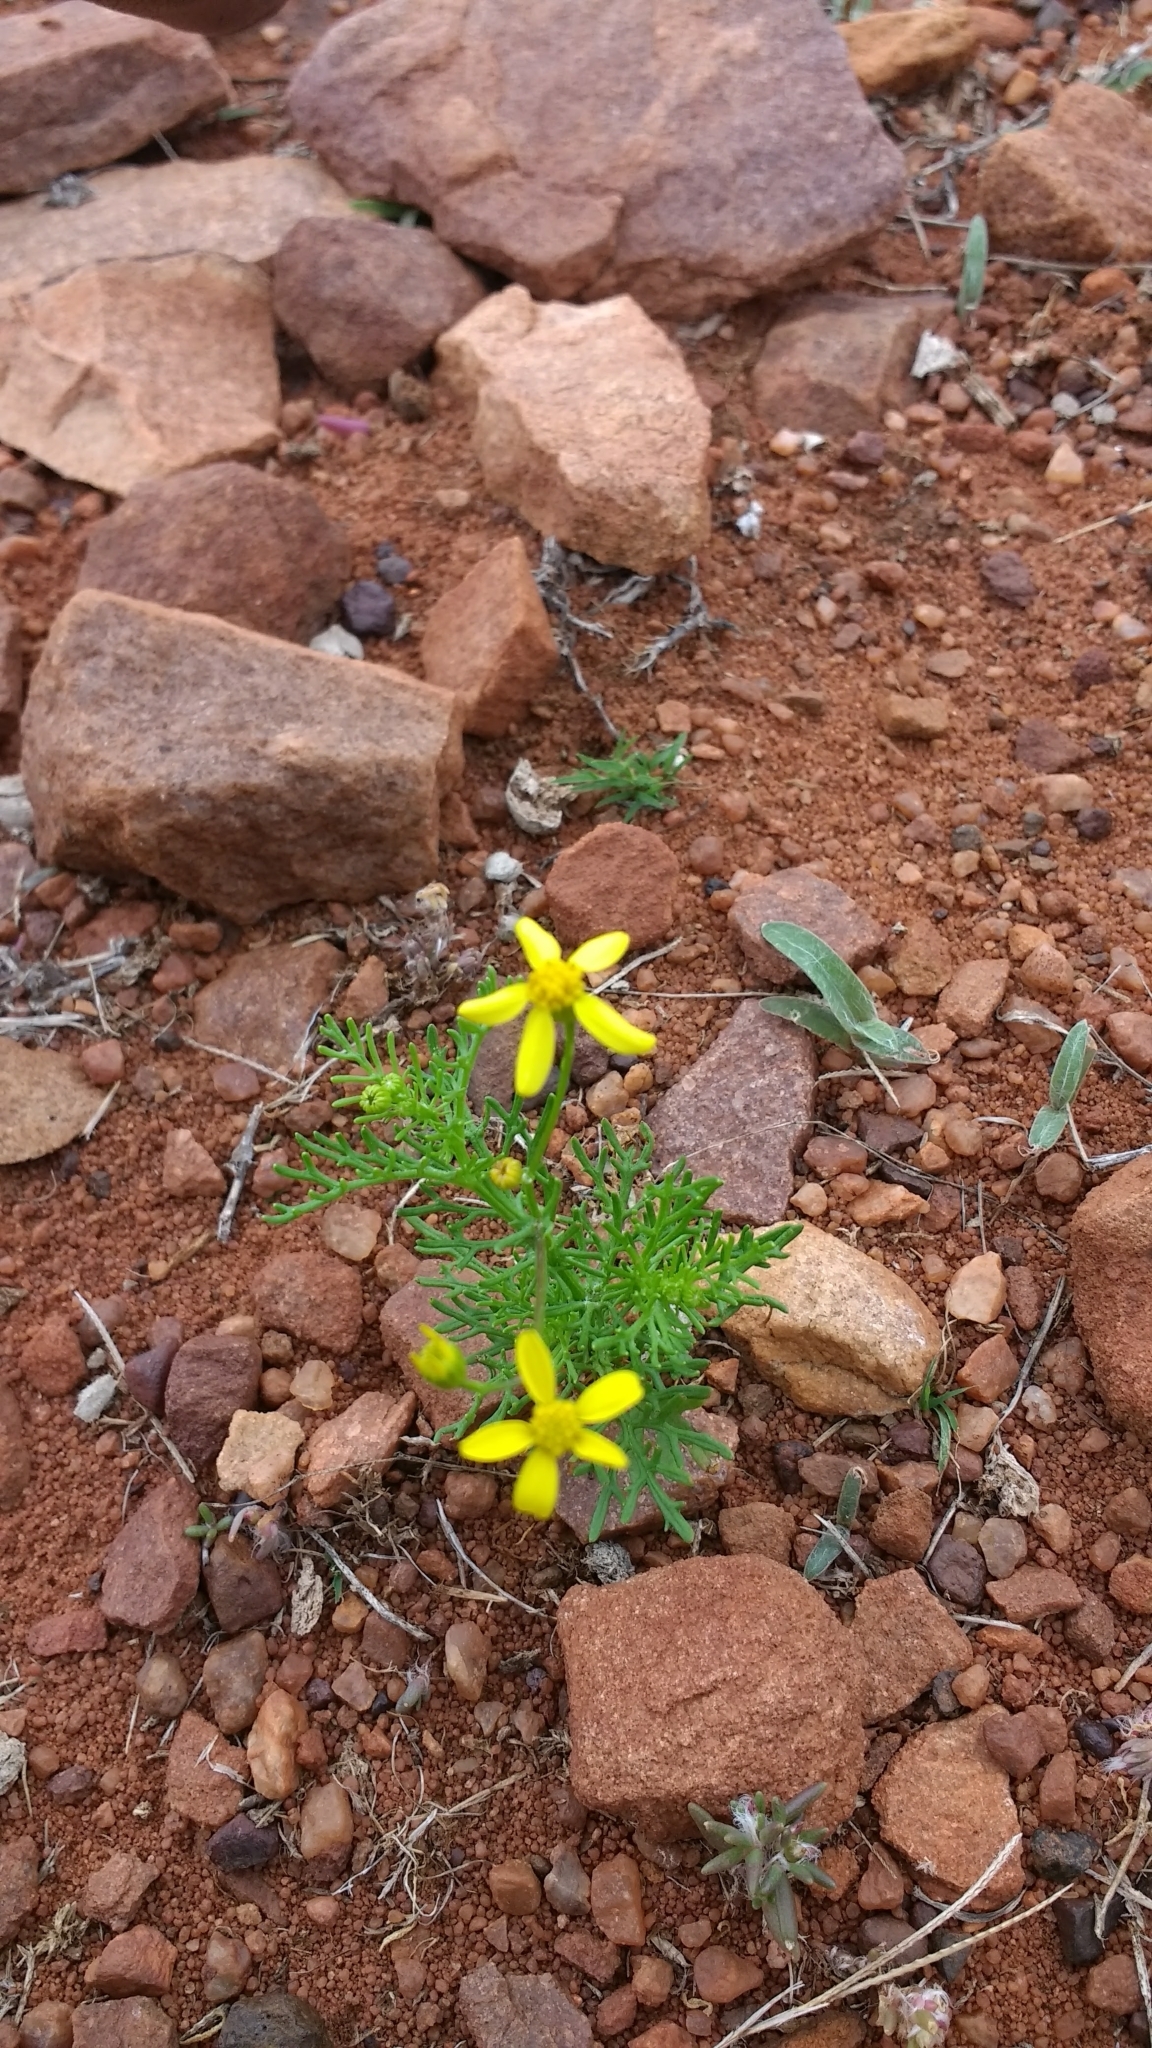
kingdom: Plantae
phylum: Tracheophyta
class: Magnoliopsida
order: Asterales
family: Asteraceae
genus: Senecio
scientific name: Senecio tenuifolius
